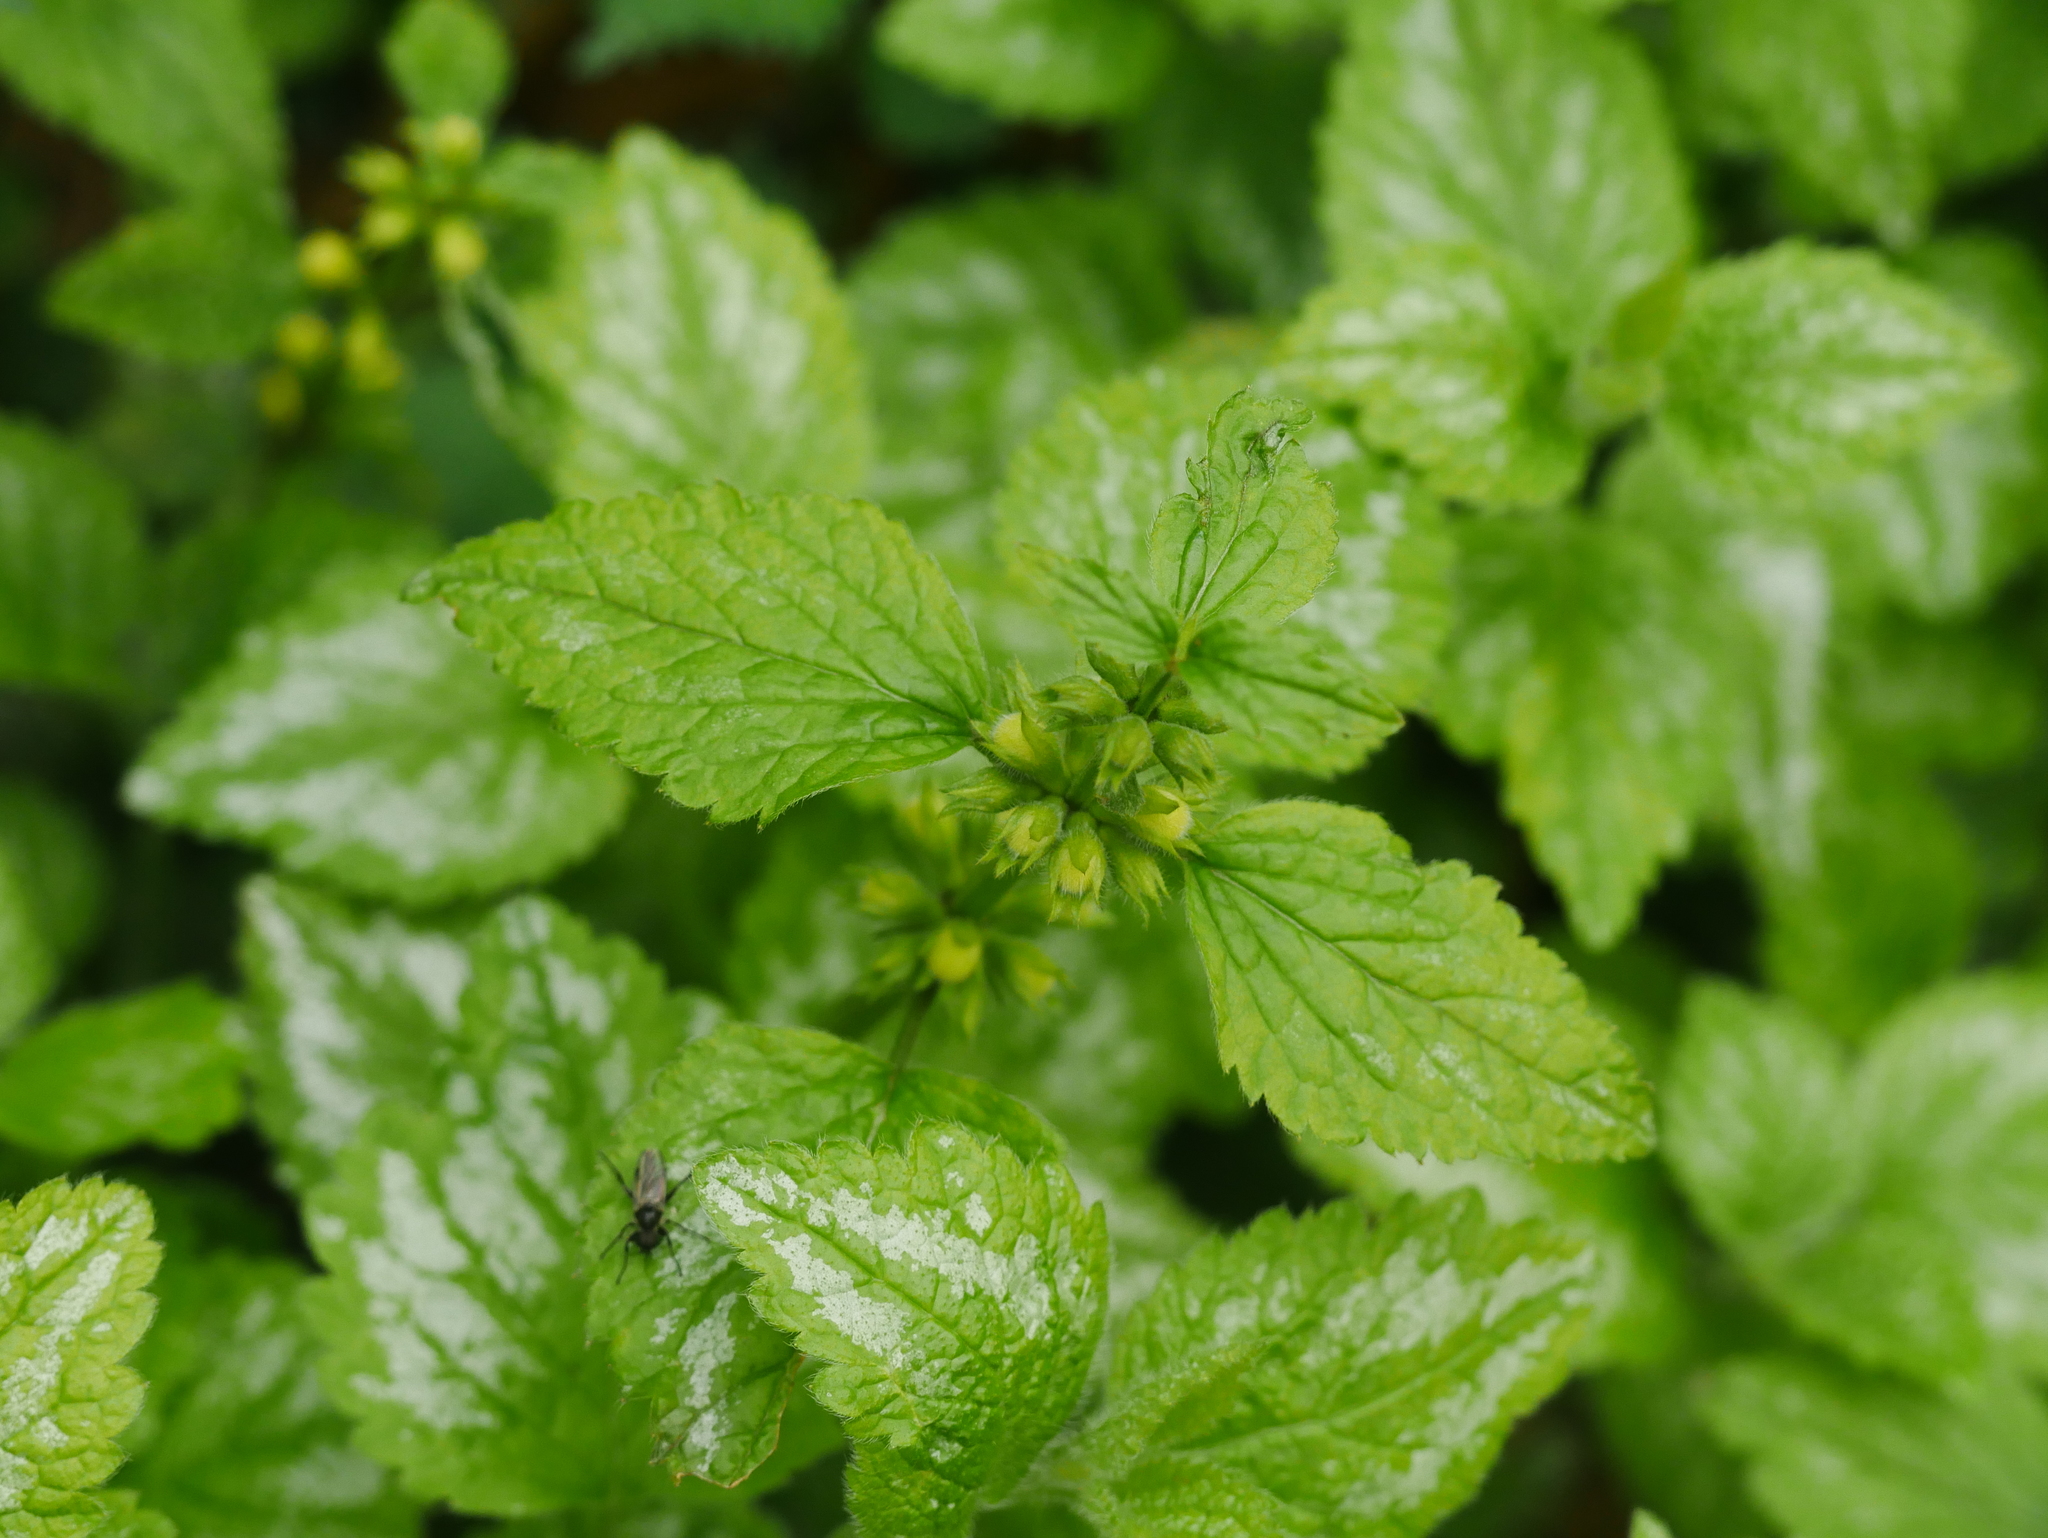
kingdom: Plantae
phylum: Tracheophyta
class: Magnoliopsida
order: Lamiales
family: Lamiaceae
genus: Lamium
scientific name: Lamium galeobdolon
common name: Yellow archangel
